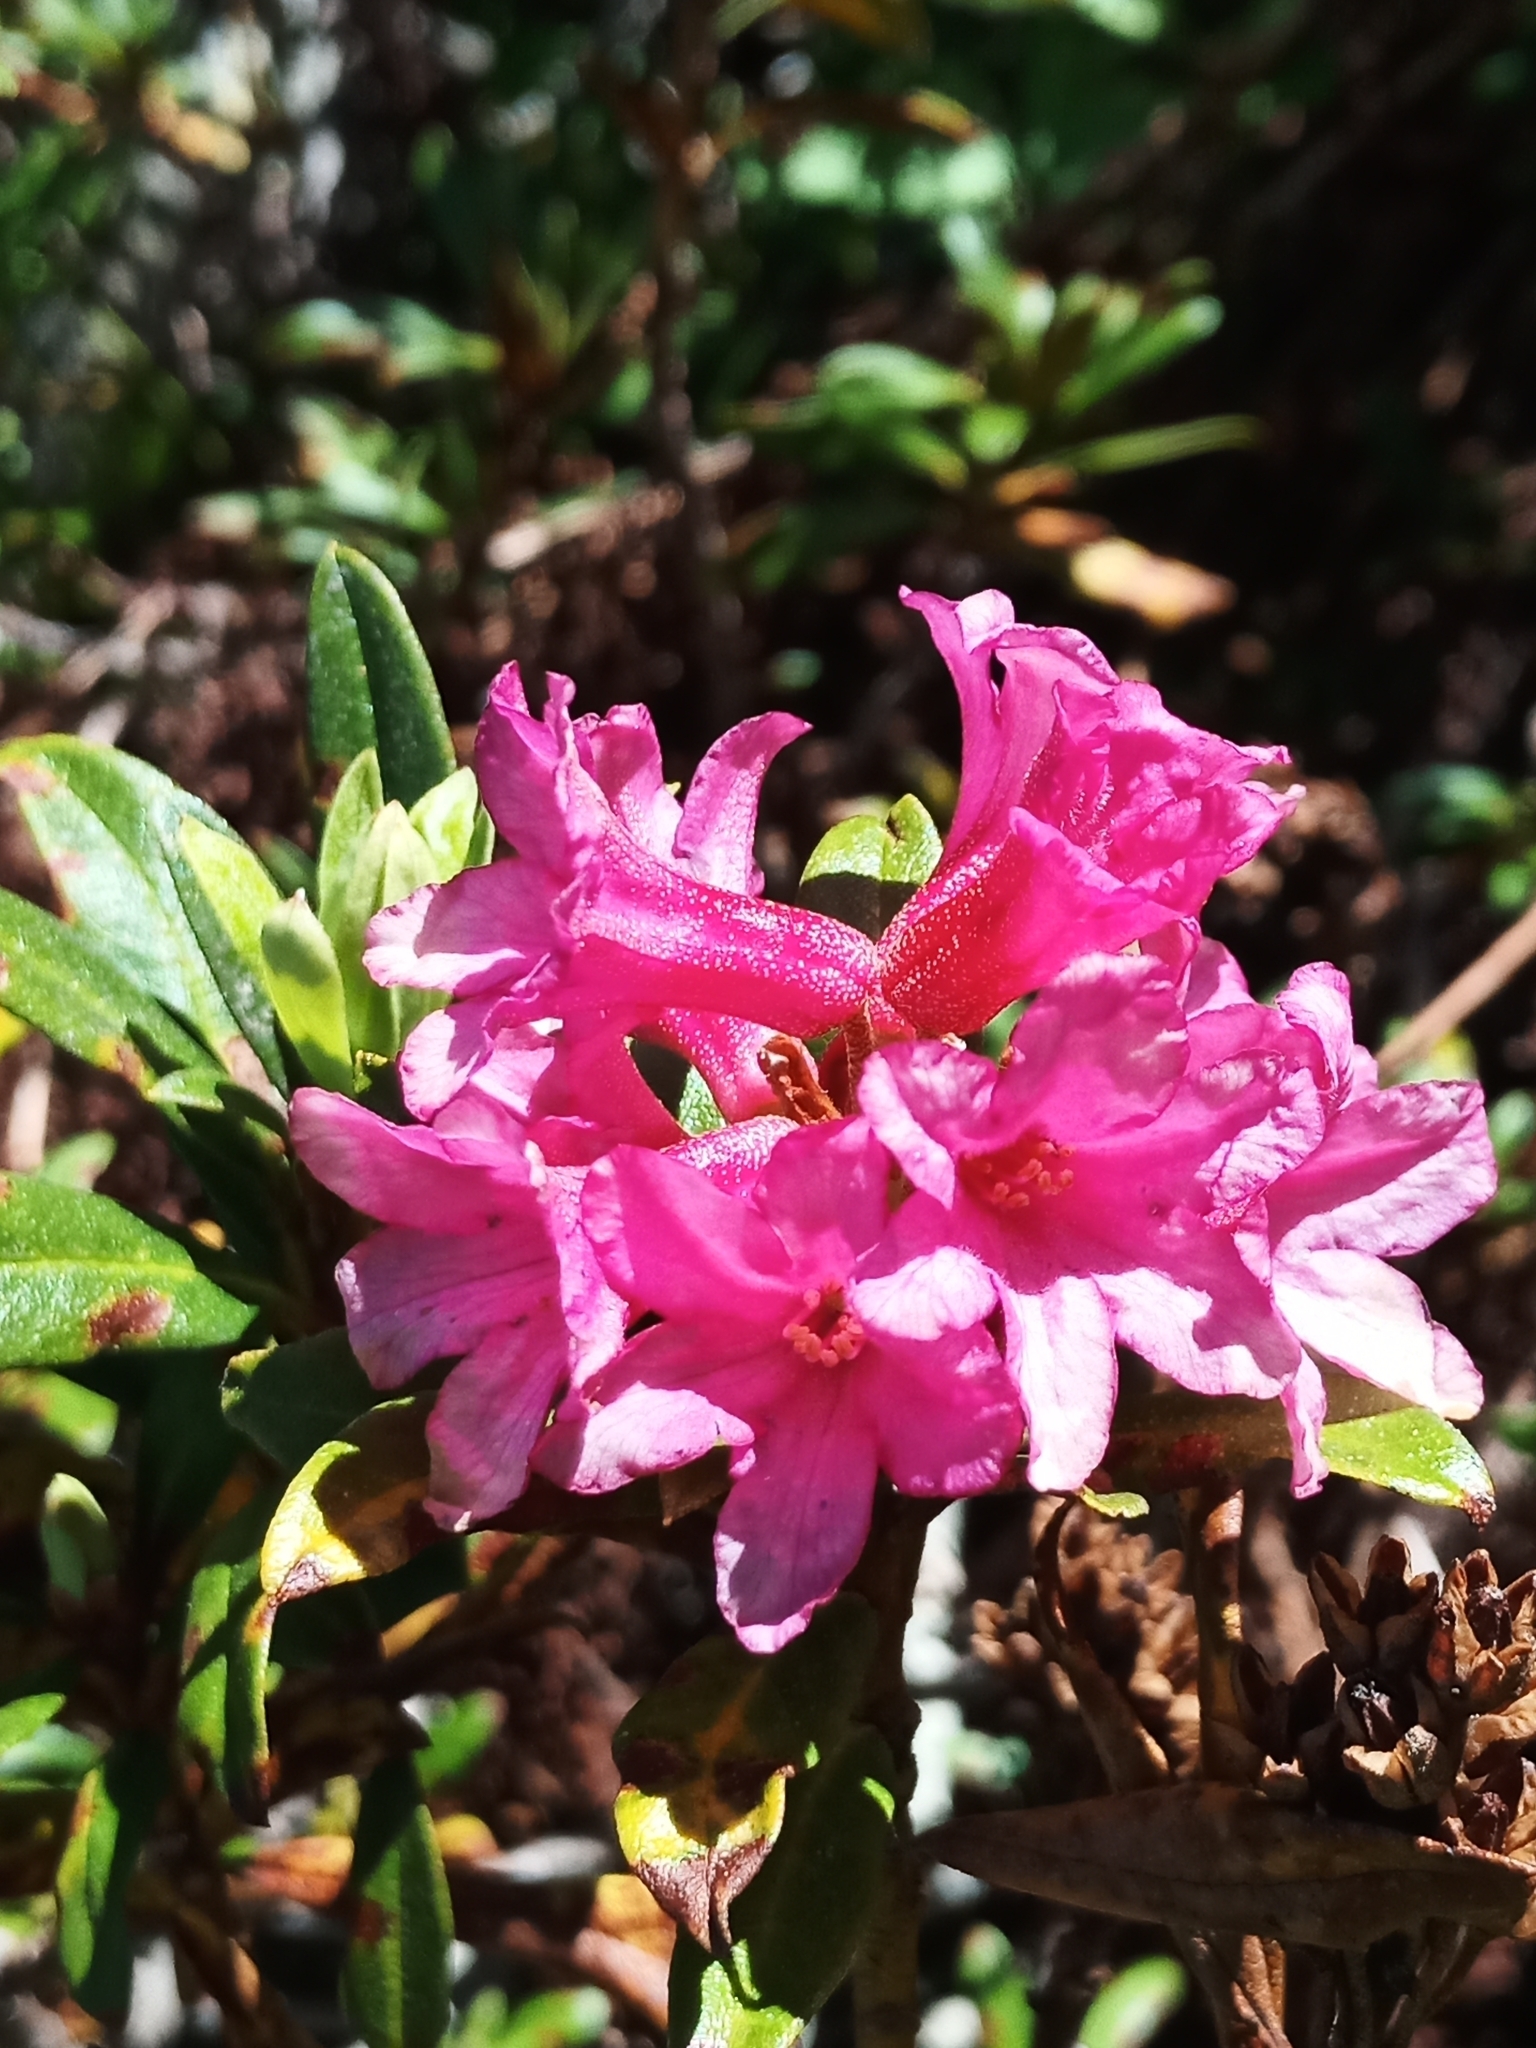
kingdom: Plantae
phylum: Tracheophyta
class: Magnoliopsida
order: Ericales
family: Ericaceae
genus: Rhododendron
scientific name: Rhododendron ferrugineum
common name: Alpenrose
